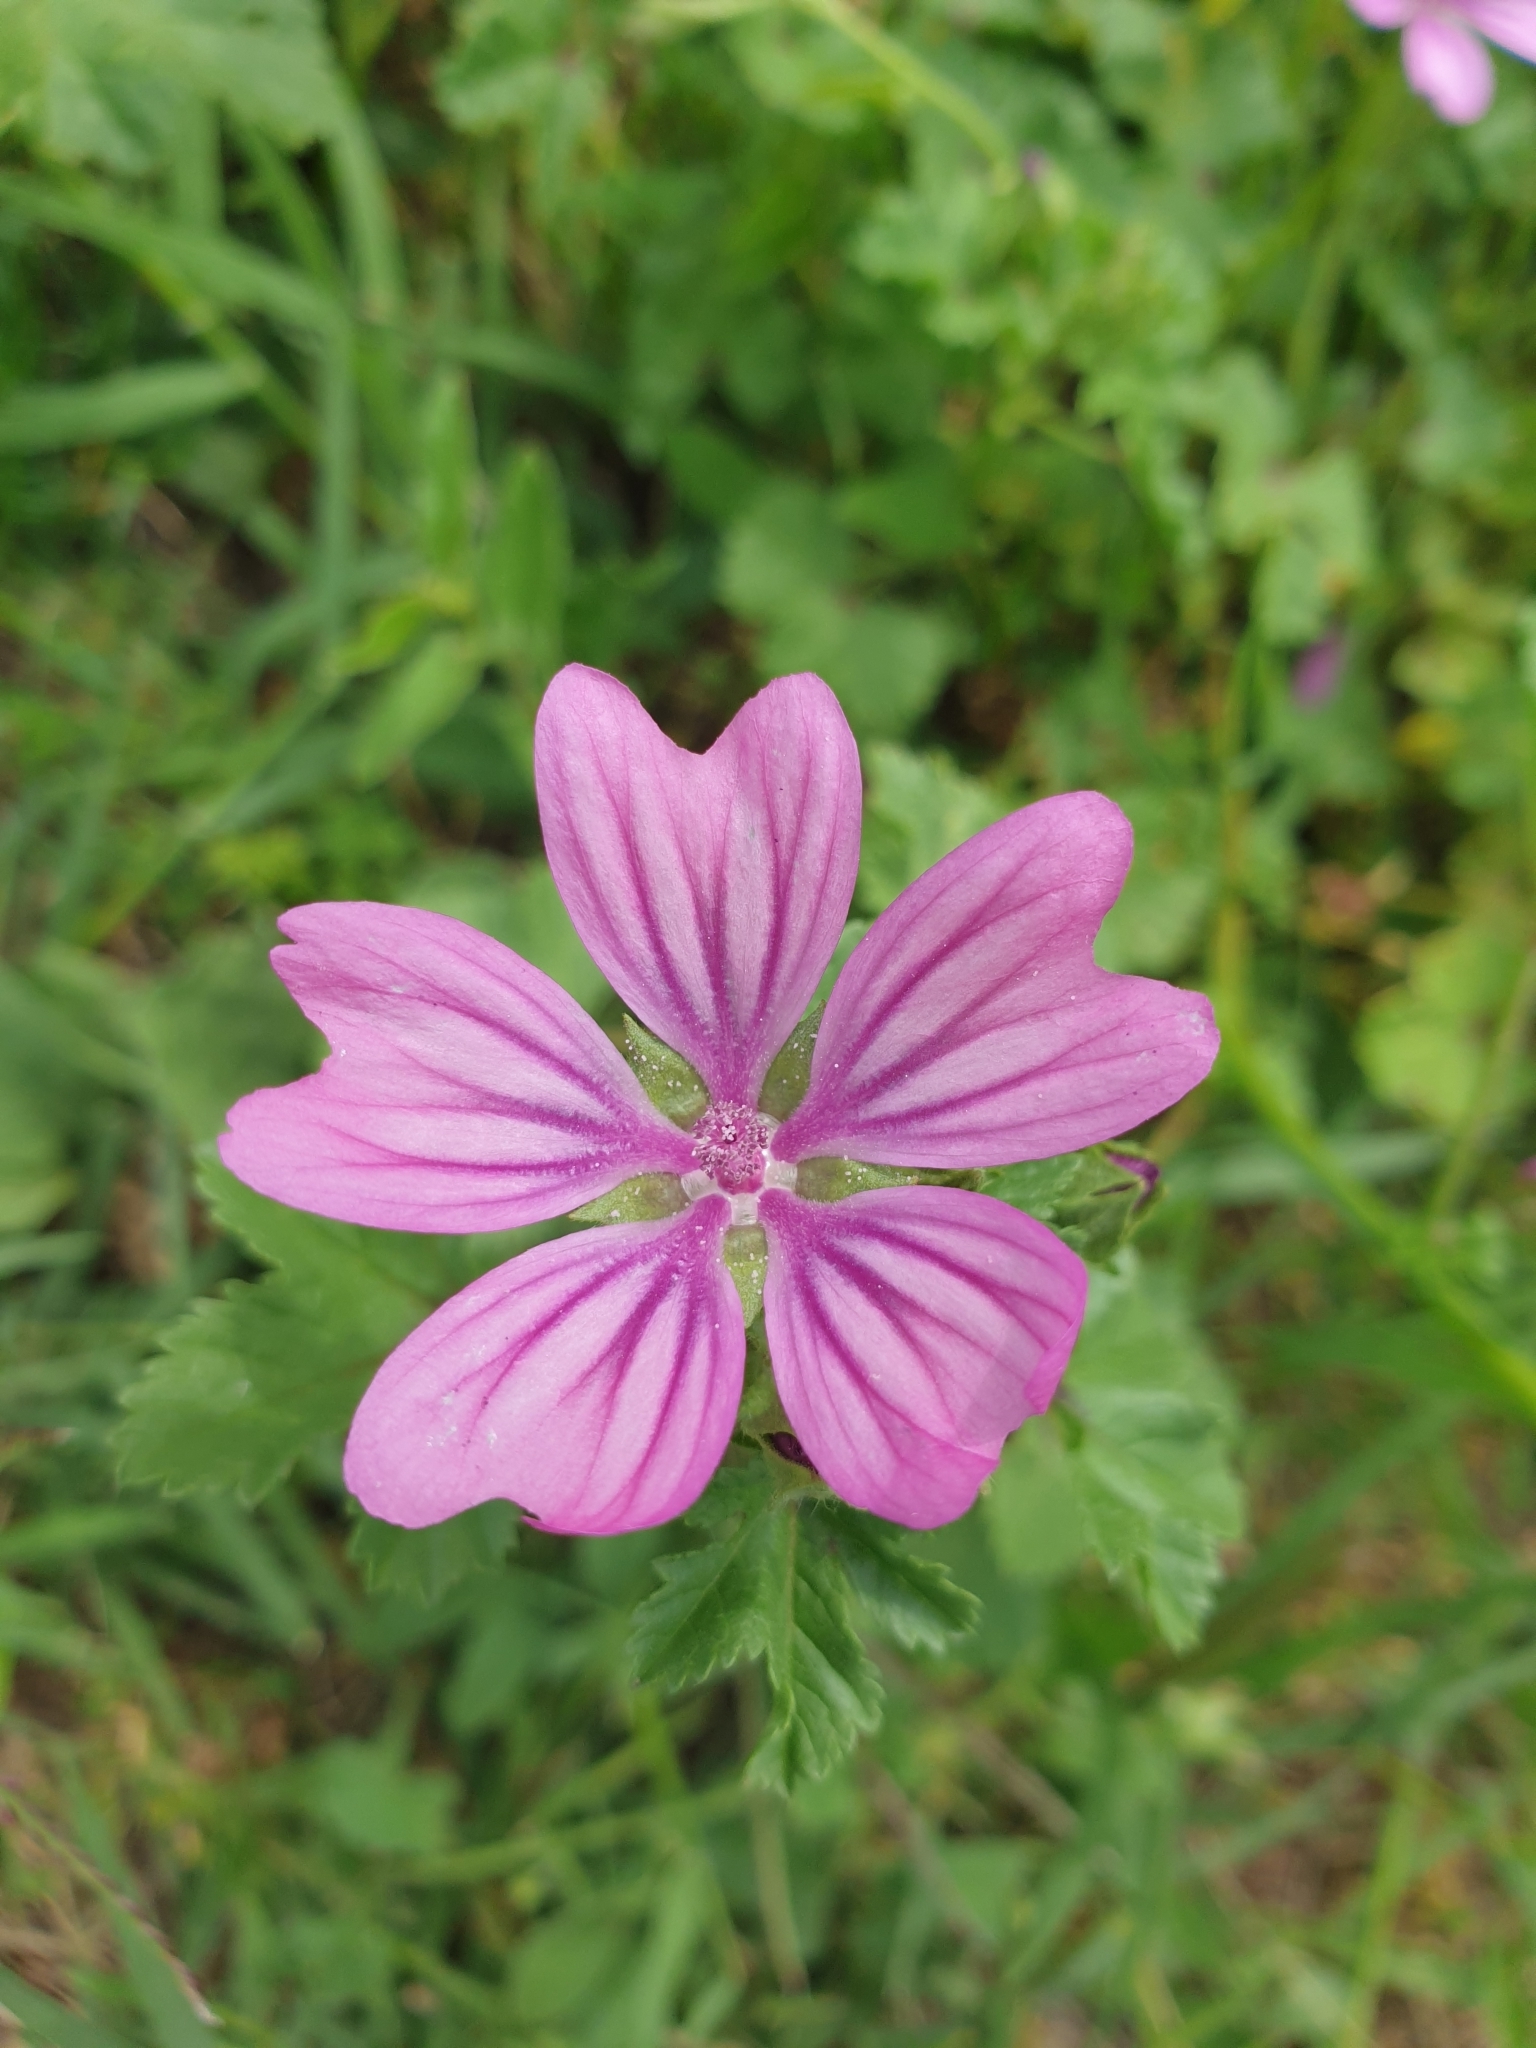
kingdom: Plantae
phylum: Tracheophyta
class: Magnoliopsida
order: Malvales
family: Malvaceae
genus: Malva
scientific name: Malva sylvestris
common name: Common mallow
